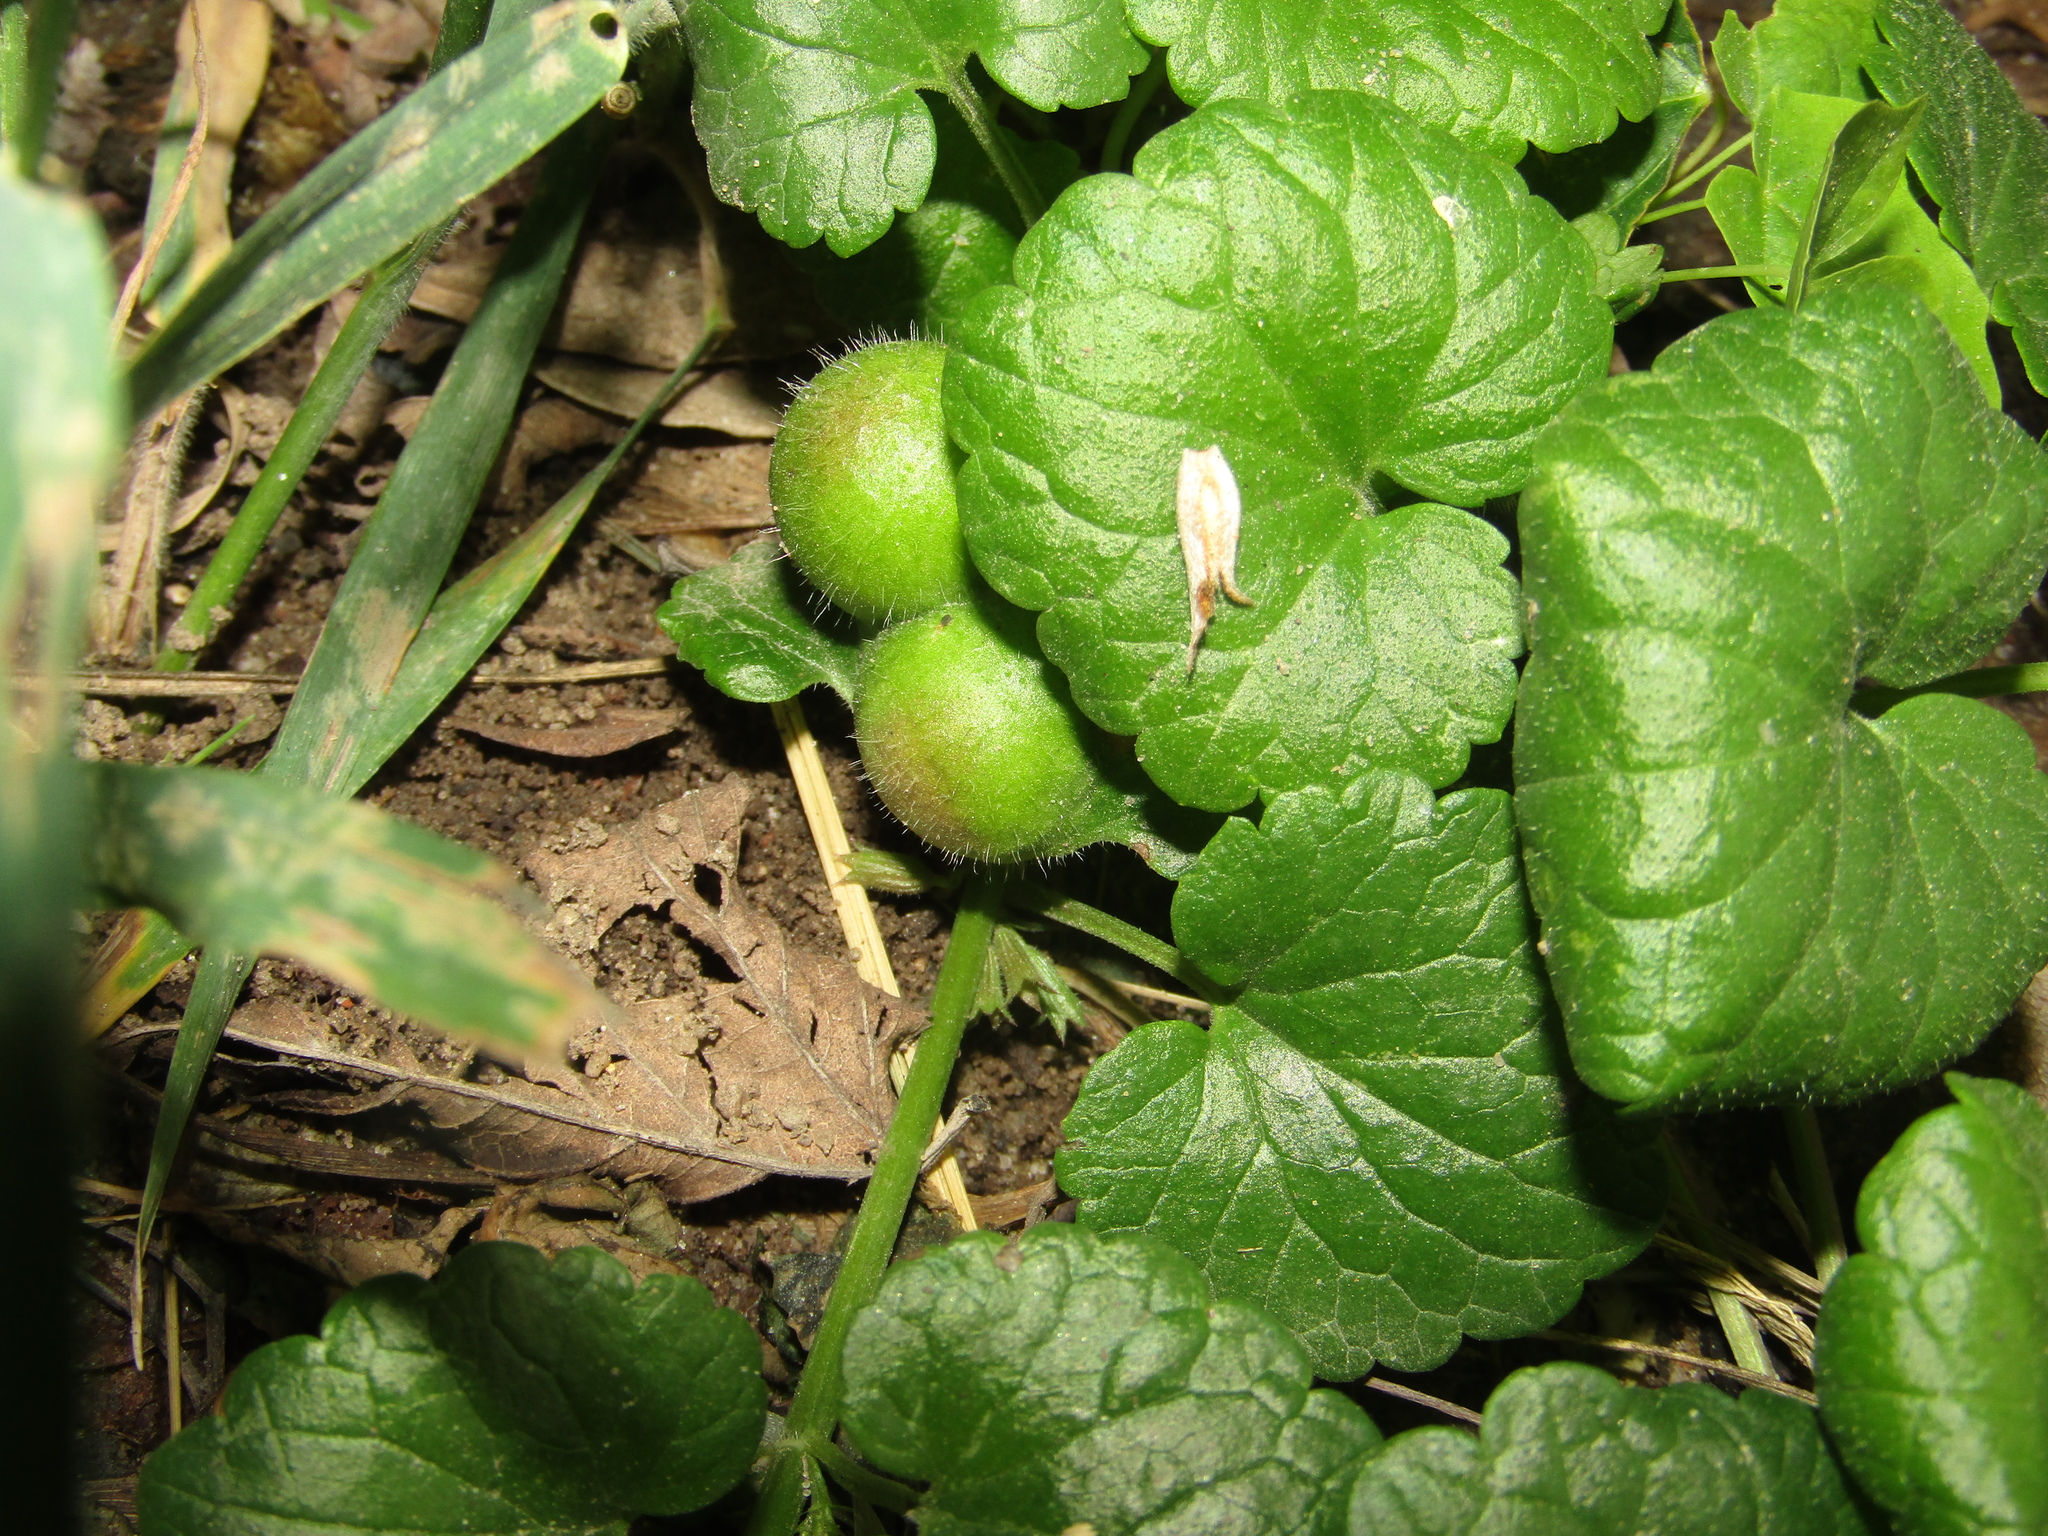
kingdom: Plantae
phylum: Tracheophyta
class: Magnoliopsida
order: Lamiales
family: Lamiaceae
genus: Glechoma
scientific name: Glechoma hederacea
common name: Ground ivy
